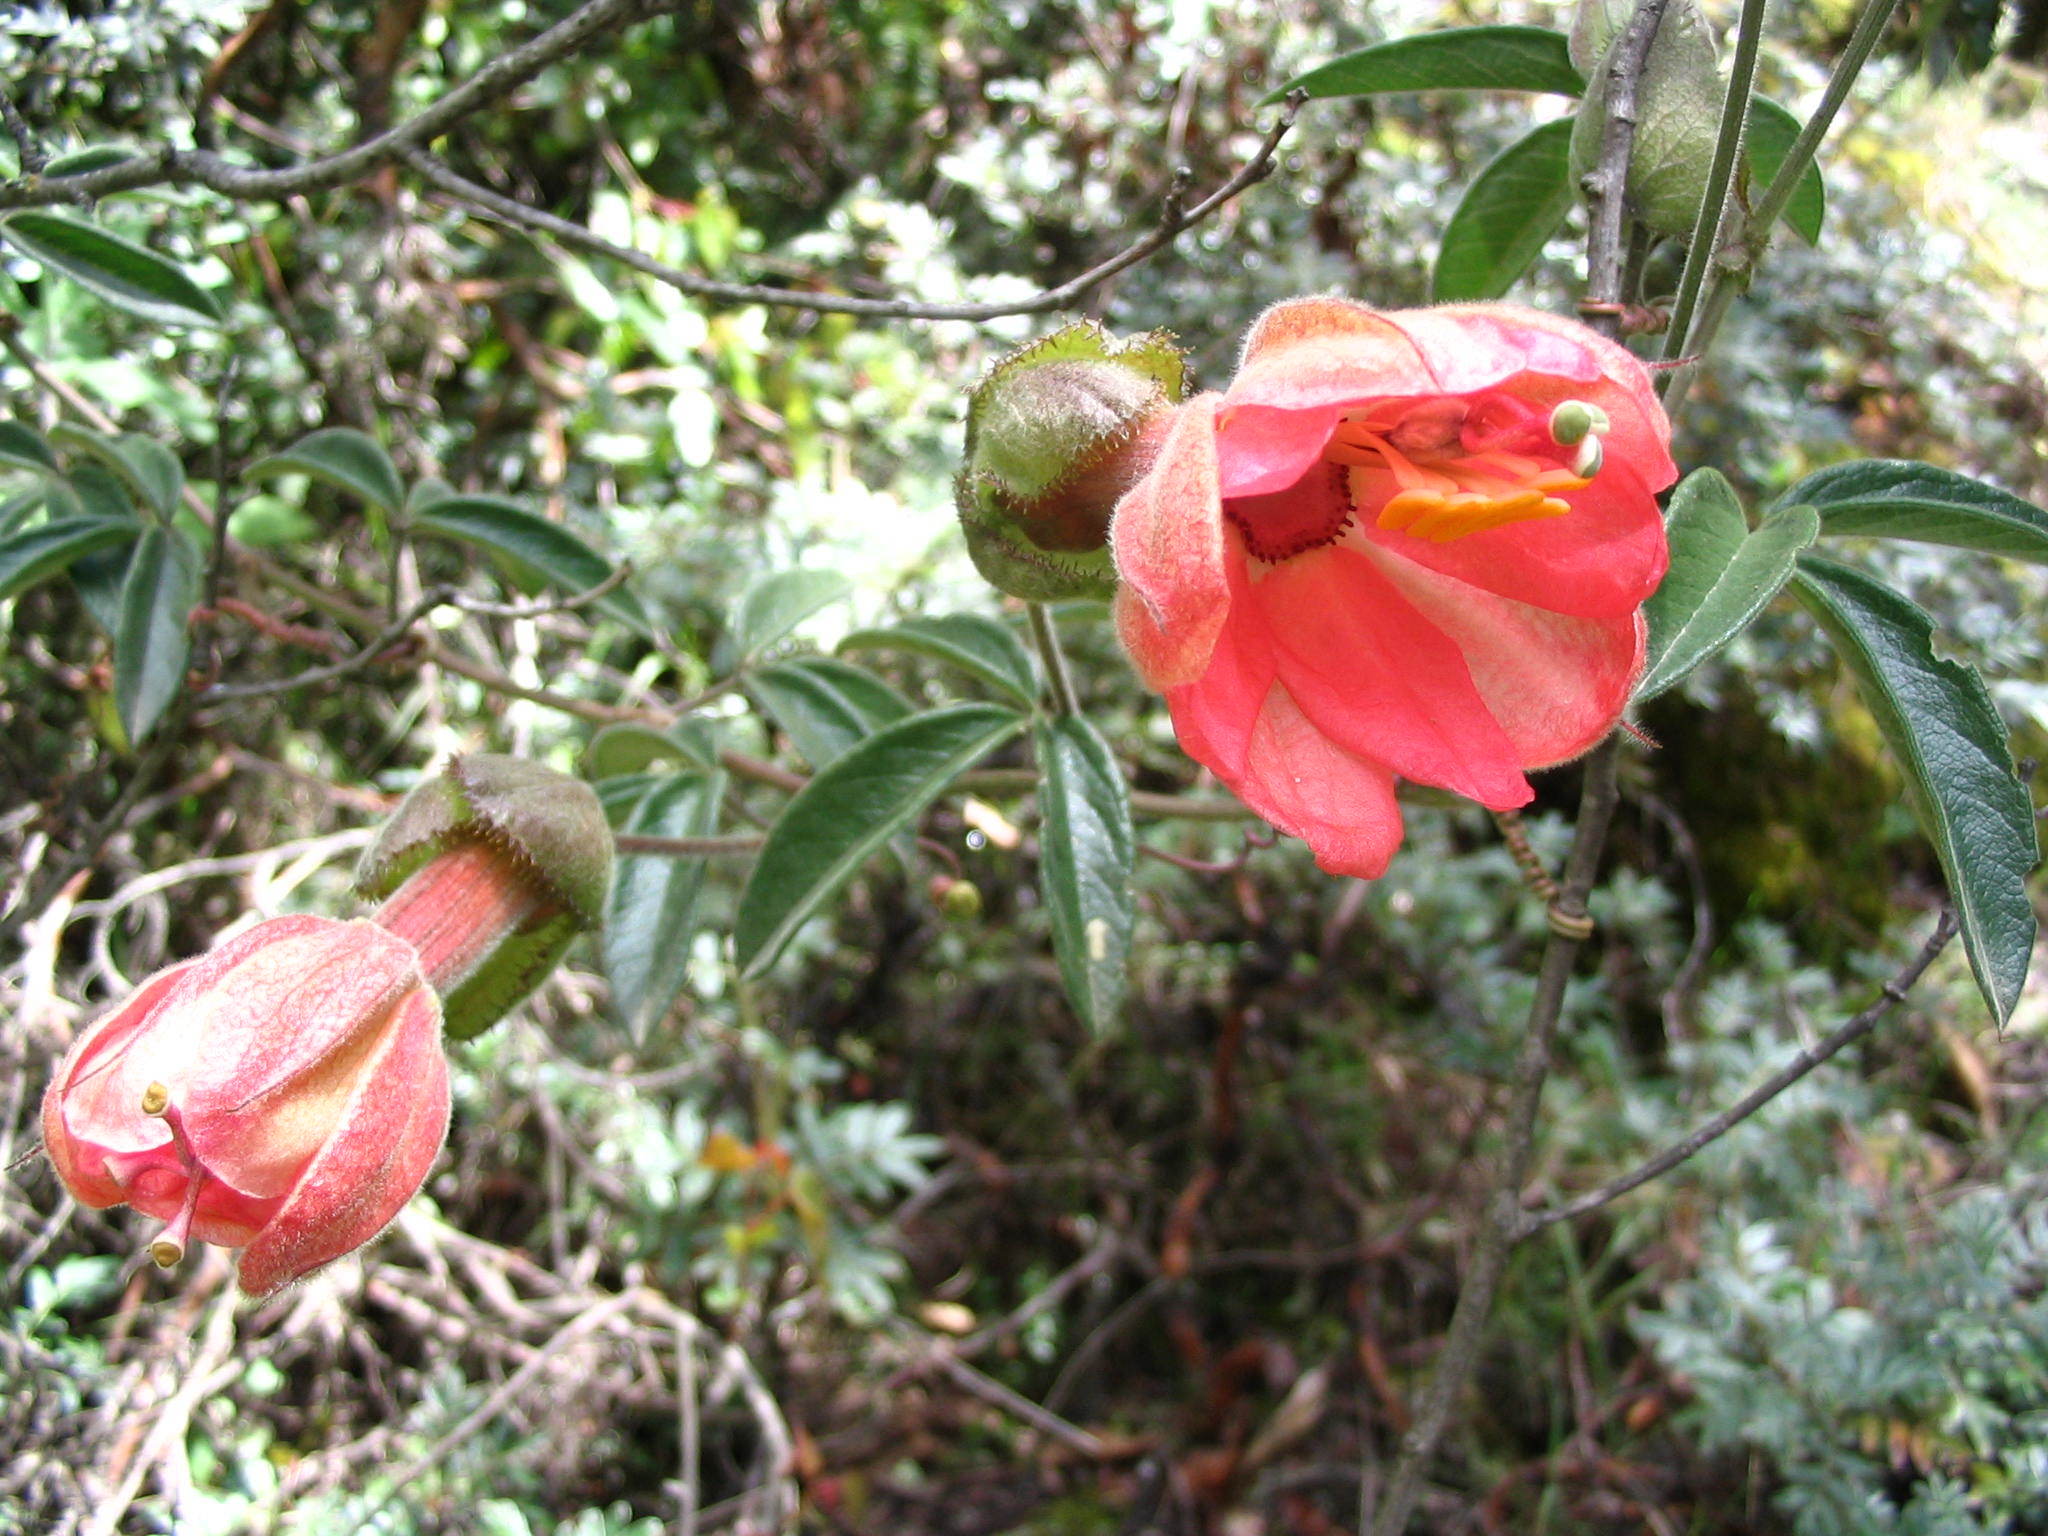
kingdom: Plantae
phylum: Tracheophyta
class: Magnoliopsida
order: Malpighiales
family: Passifloraceae
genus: Passiflora
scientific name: Passiflora trifoliata
